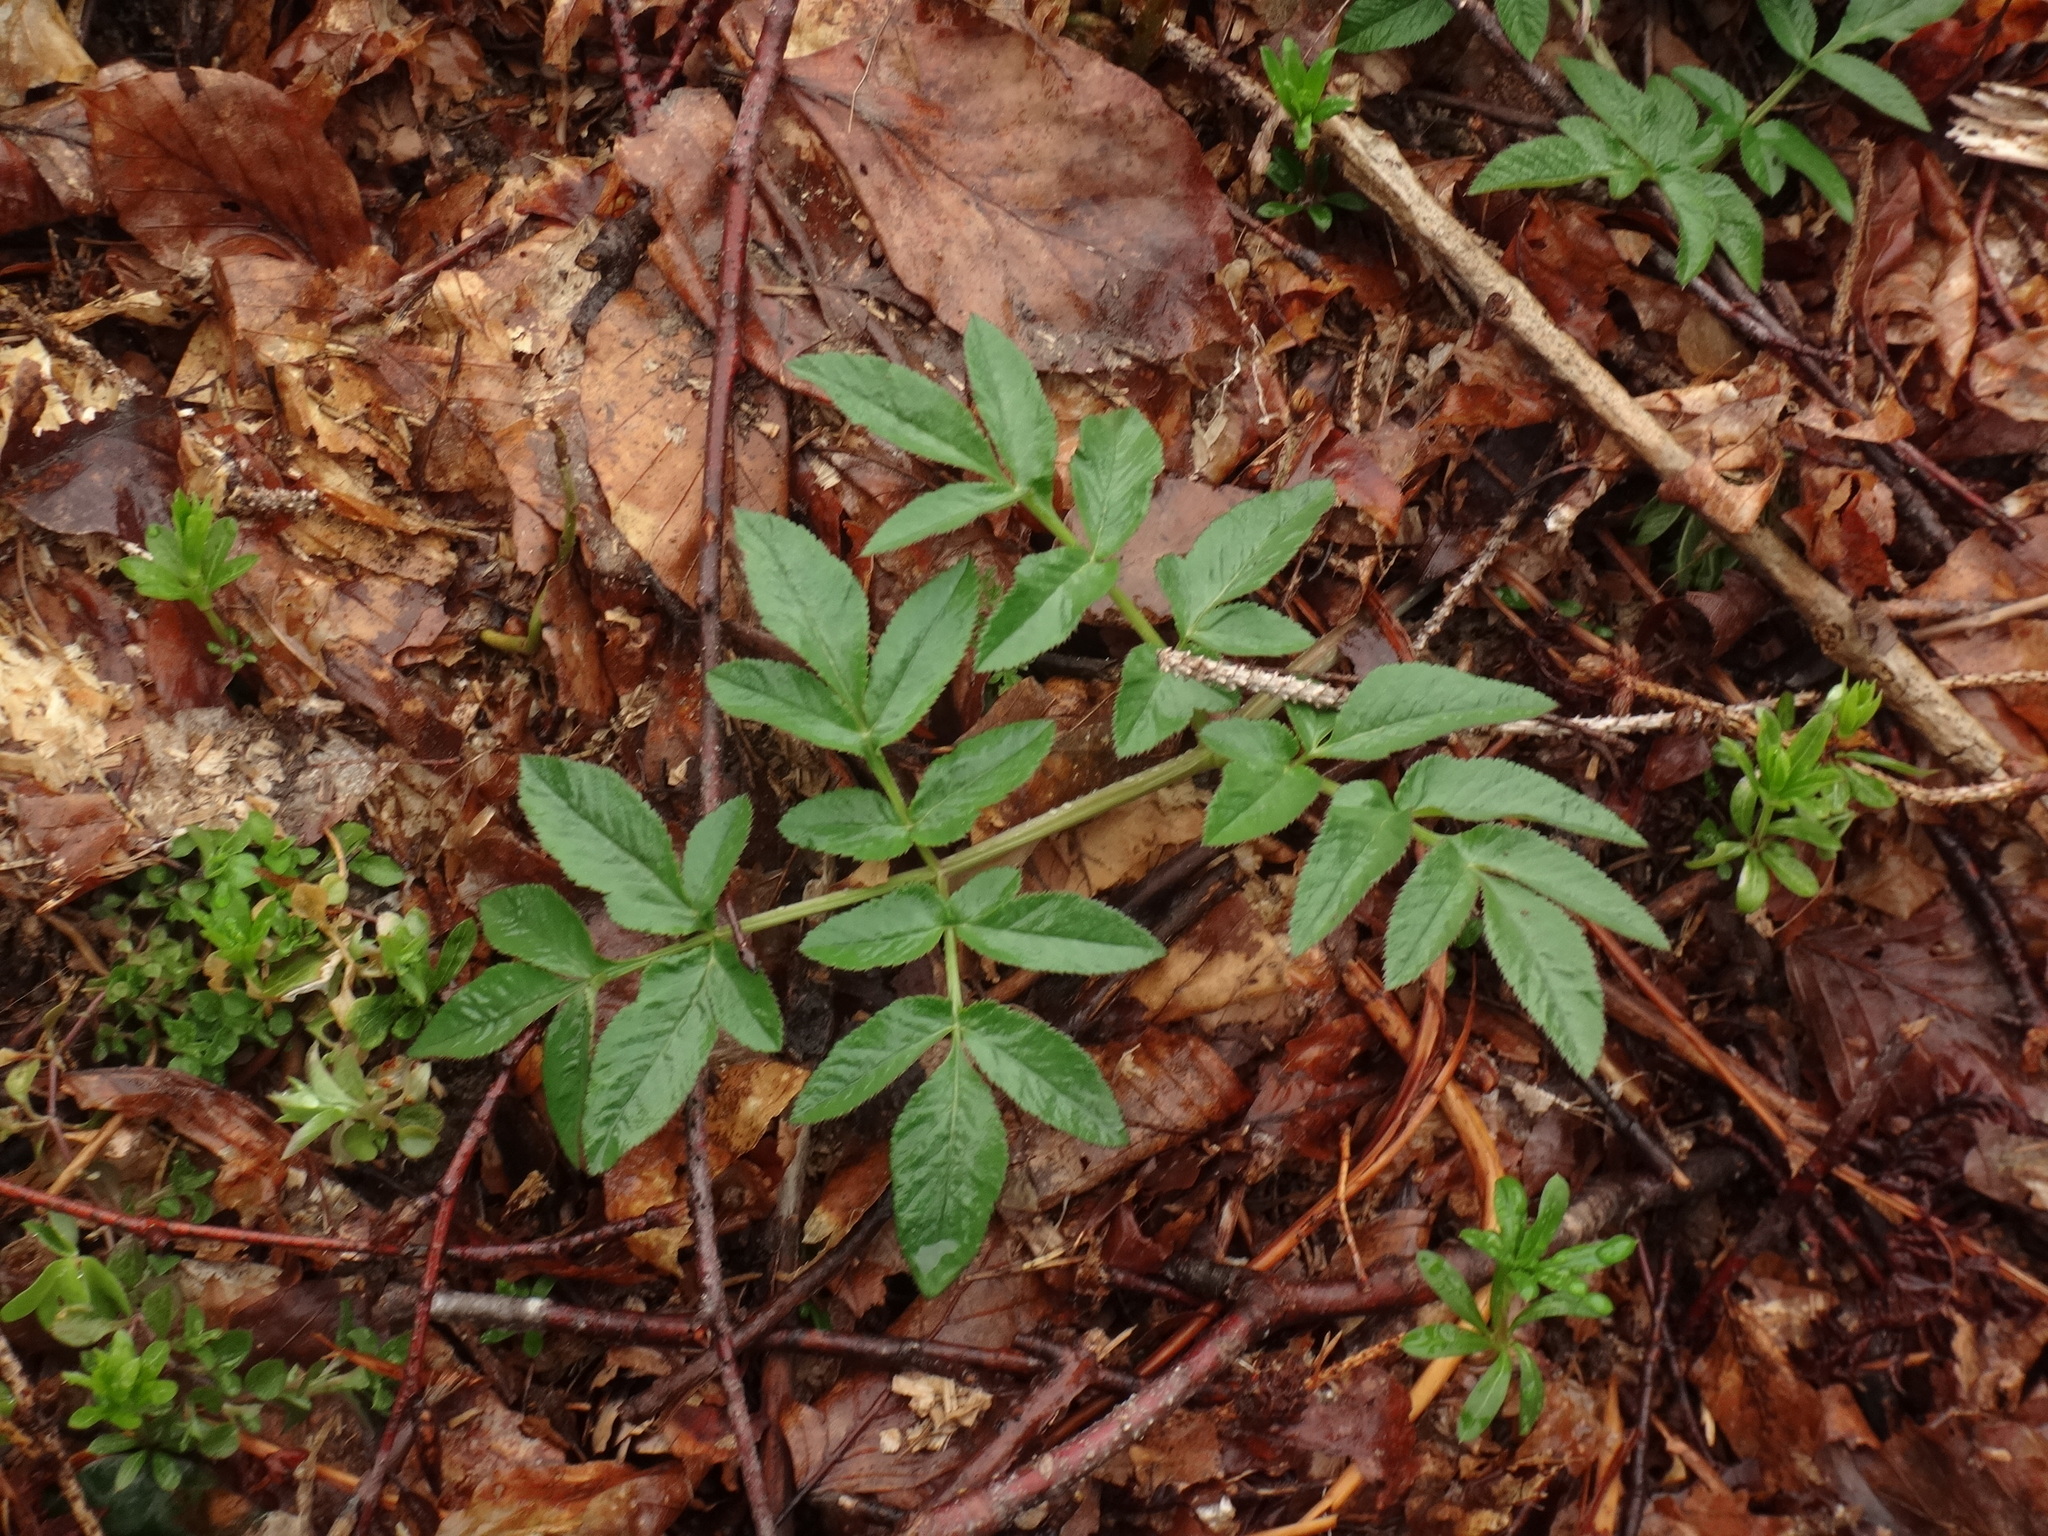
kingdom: Plantae
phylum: Tracheophyta
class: Magnoliopsida
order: Apiales
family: Apiaceae
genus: Angelica
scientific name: Angelica sylvestris
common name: Wild angelica
